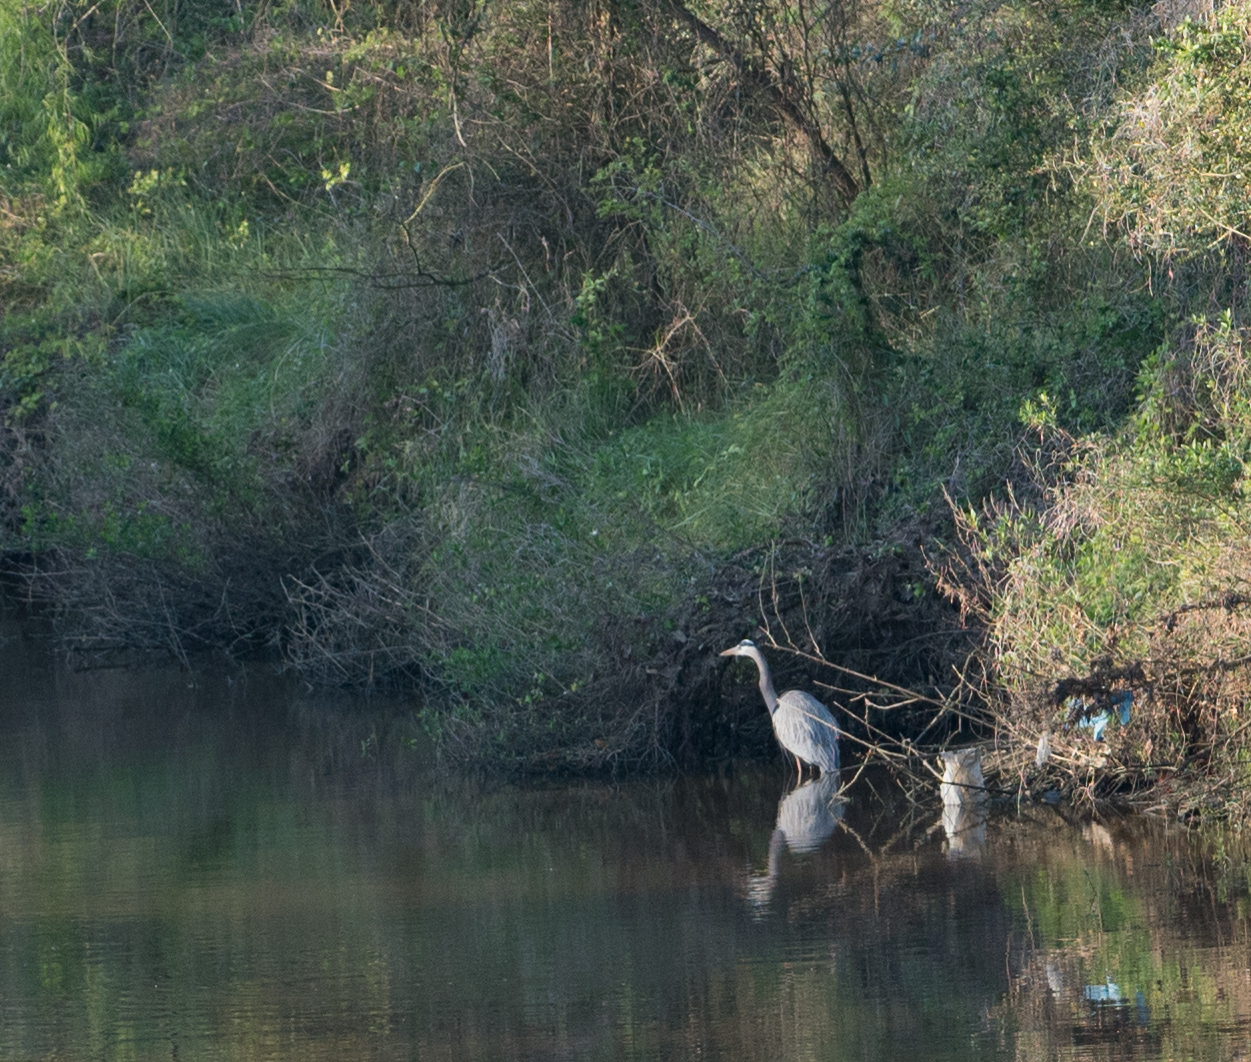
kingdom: Animalia
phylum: Chordata
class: Aves
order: Pelecaniformes
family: Ardeidae
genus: Ardea
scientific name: Ardea herodias
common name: Great blue heron
